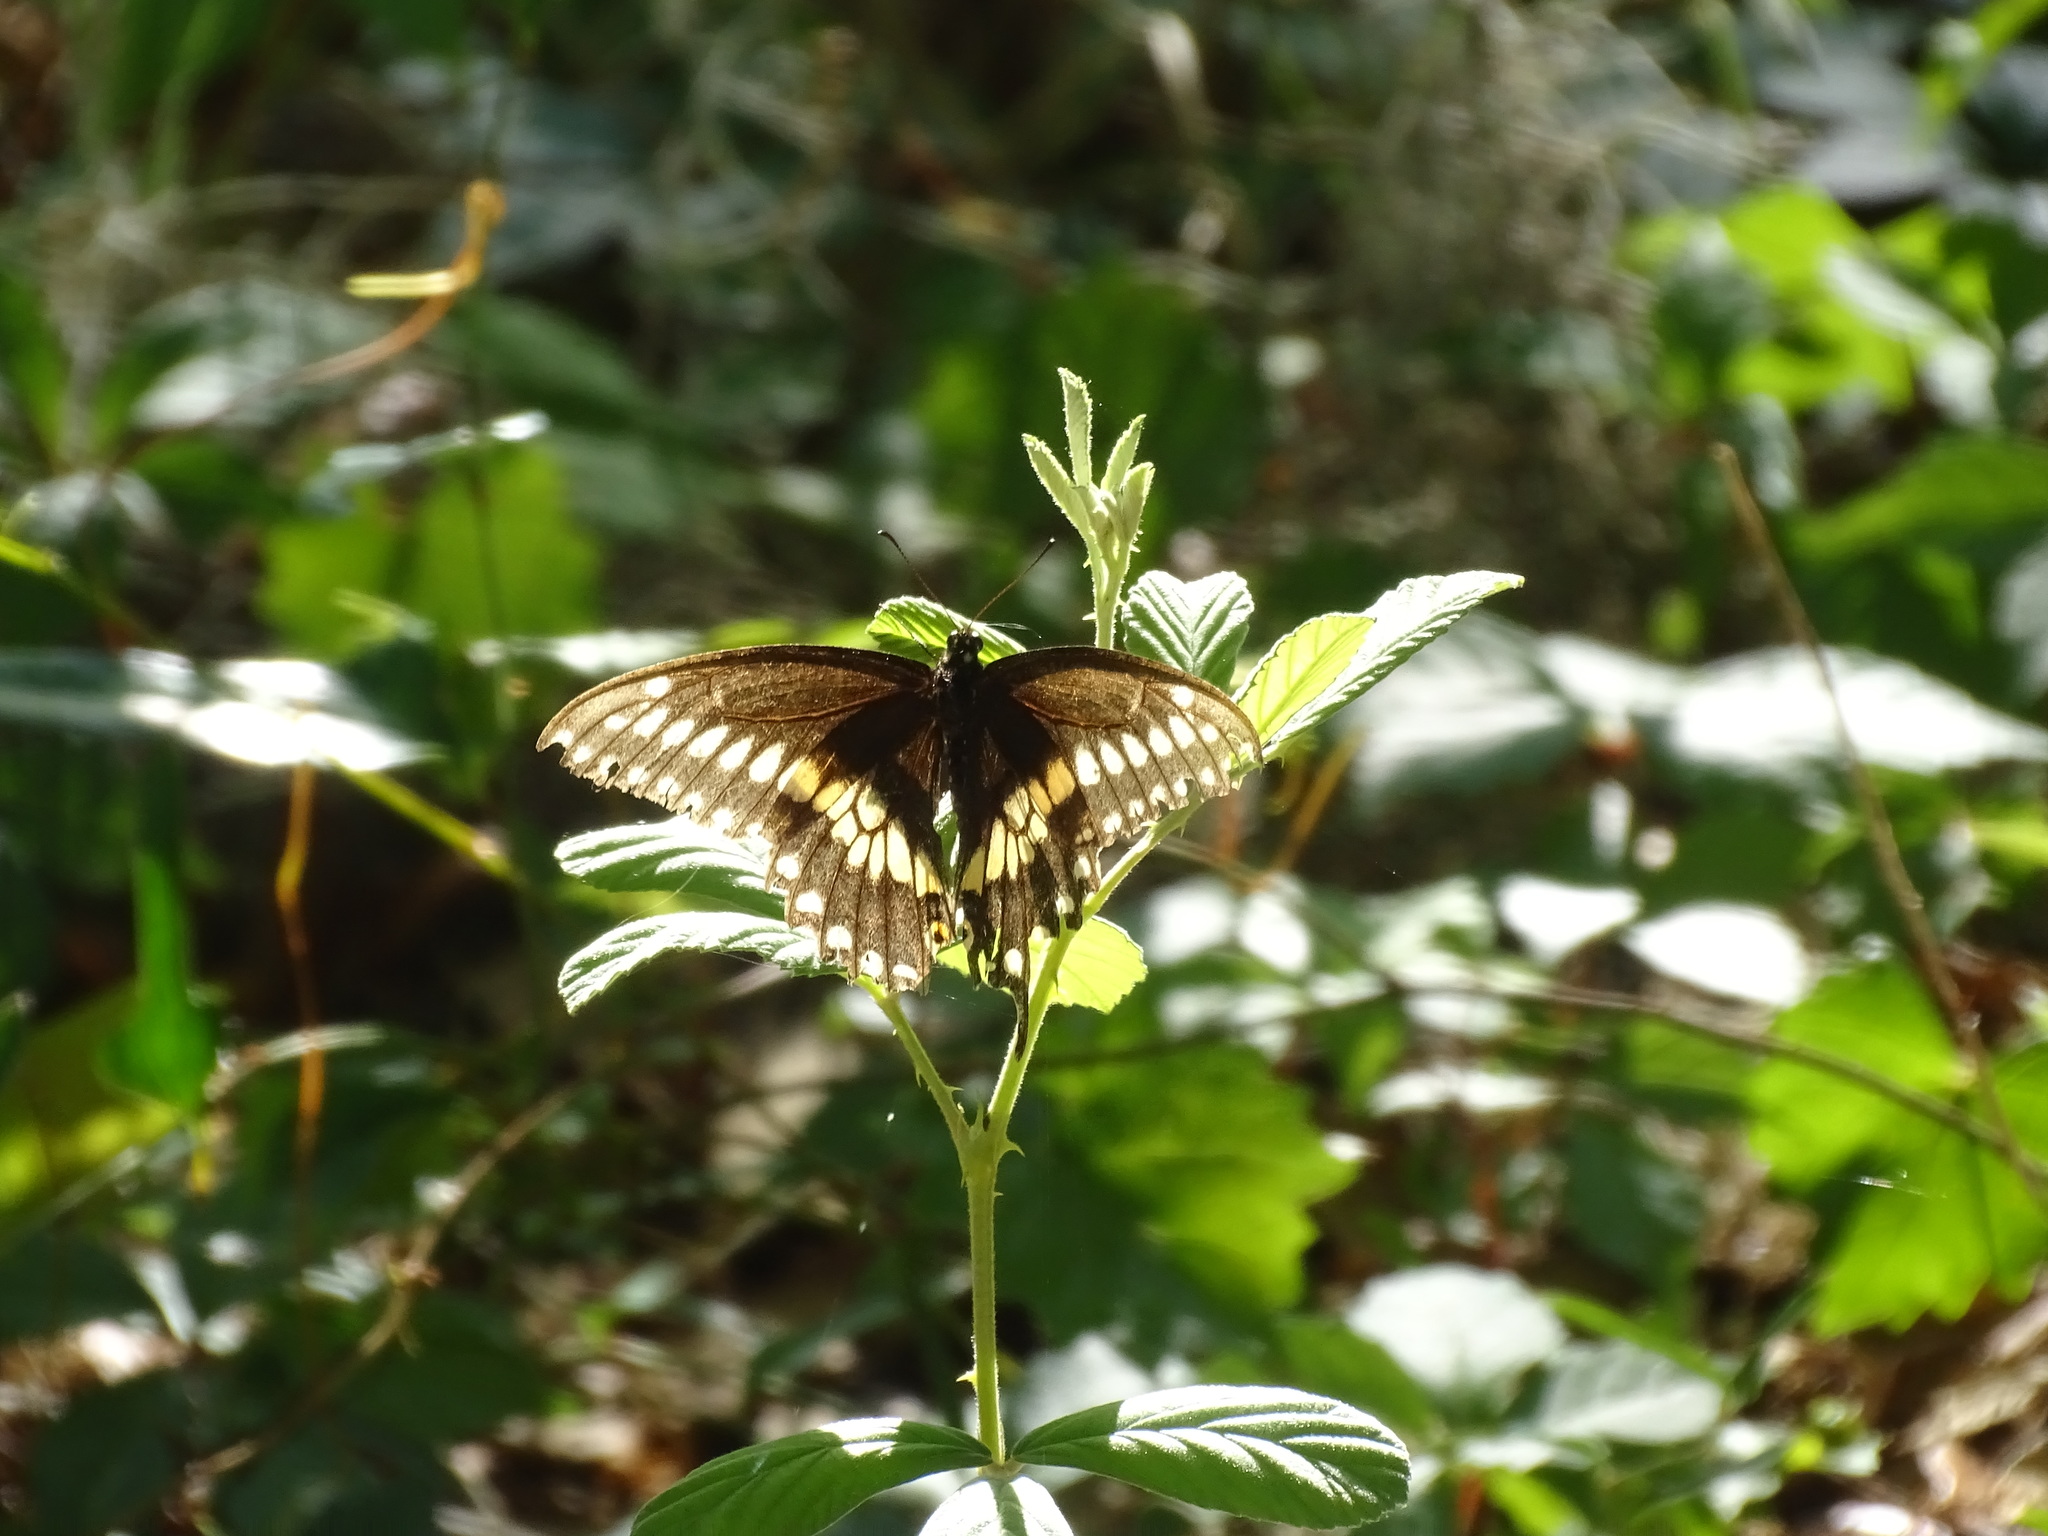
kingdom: Animalia
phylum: Arthropoda
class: Insecta
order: Lepidoptera
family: Papilionidae
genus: Papilio
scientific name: Papilio polyxenes
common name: Black swallowtail
